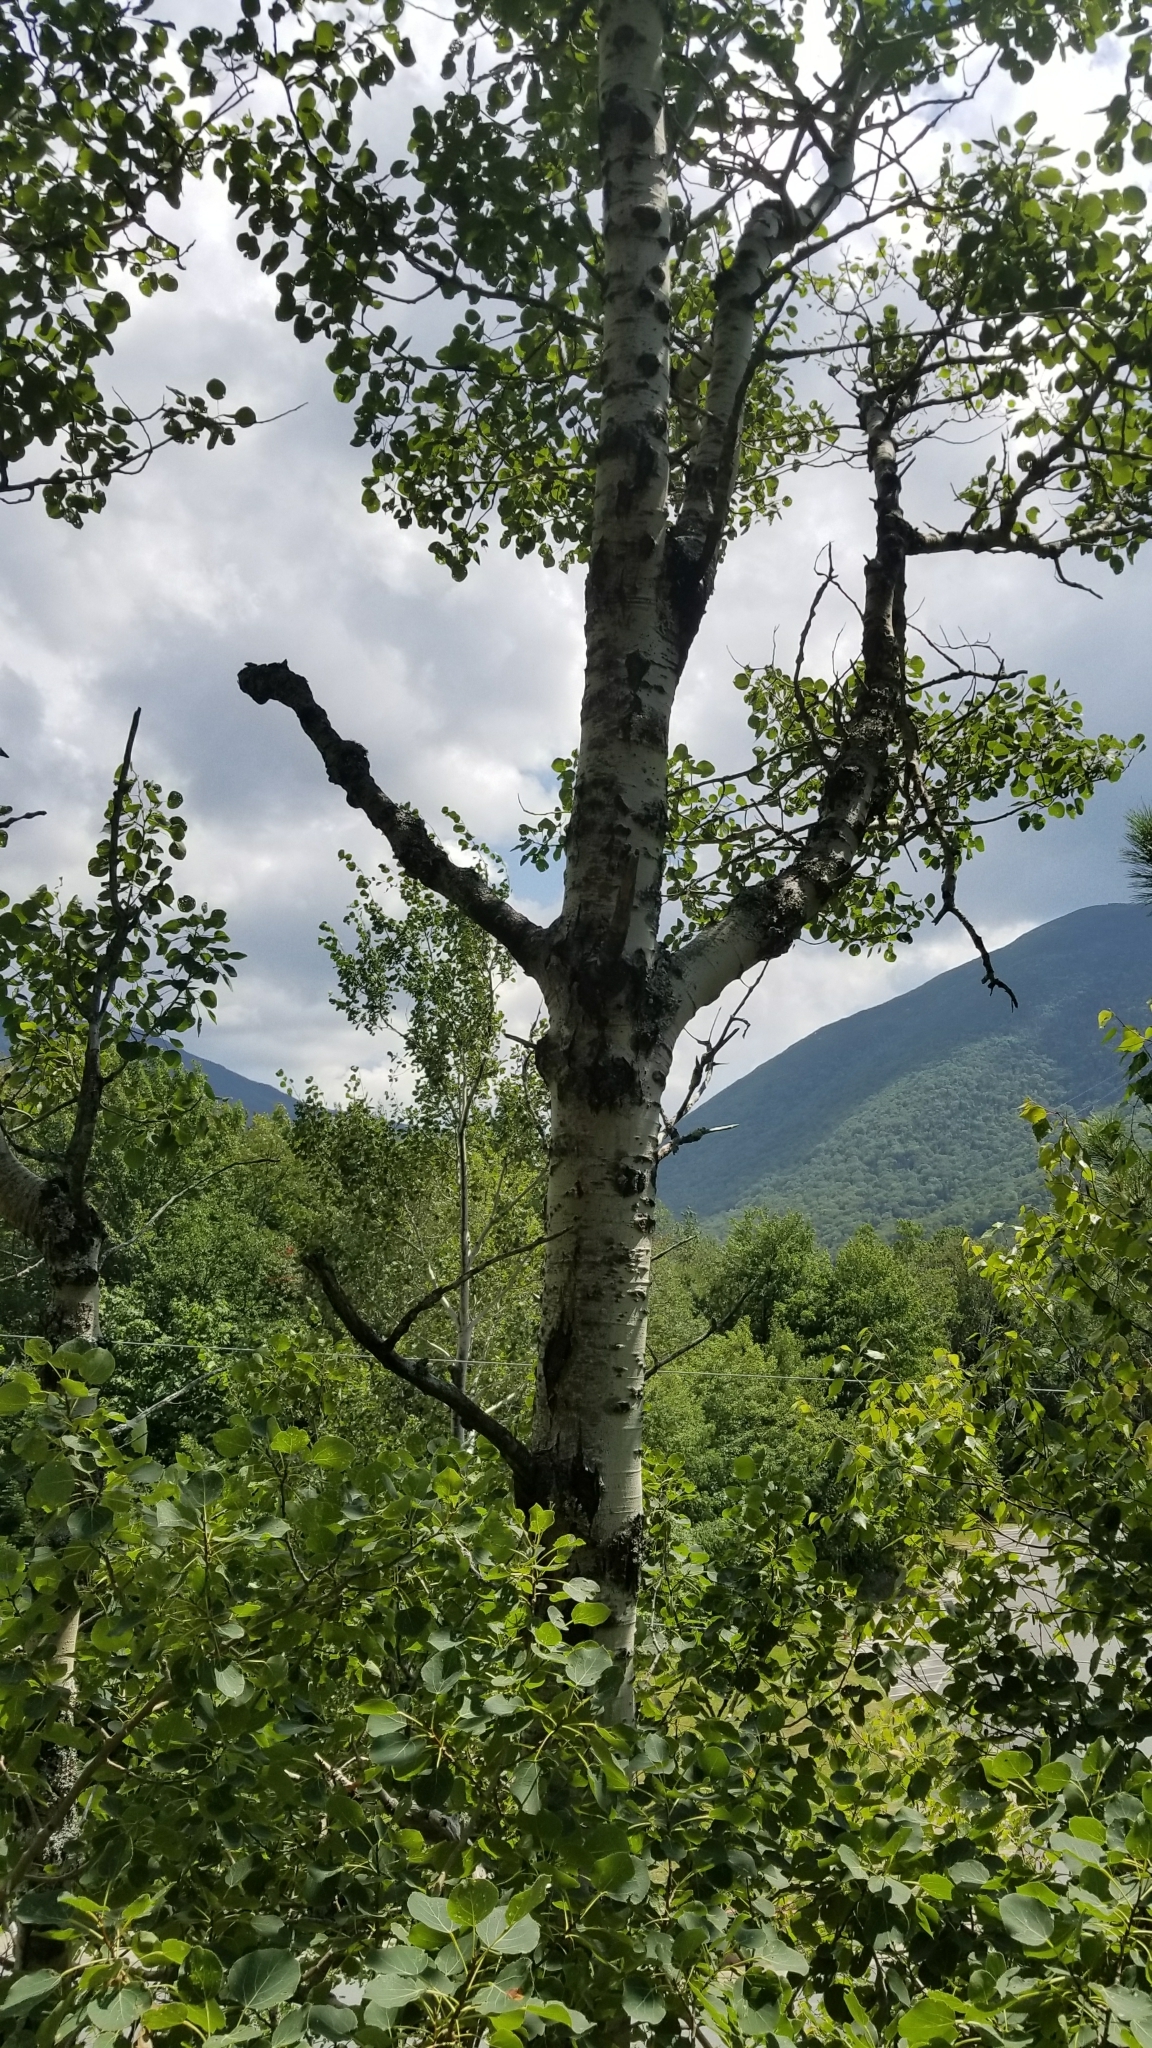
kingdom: Plantae
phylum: Tracheophyta
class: Magnoliopsida
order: Malpighiales
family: Salicaceae
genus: Populus
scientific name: Populus tremuloides
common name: Quaking aspen
